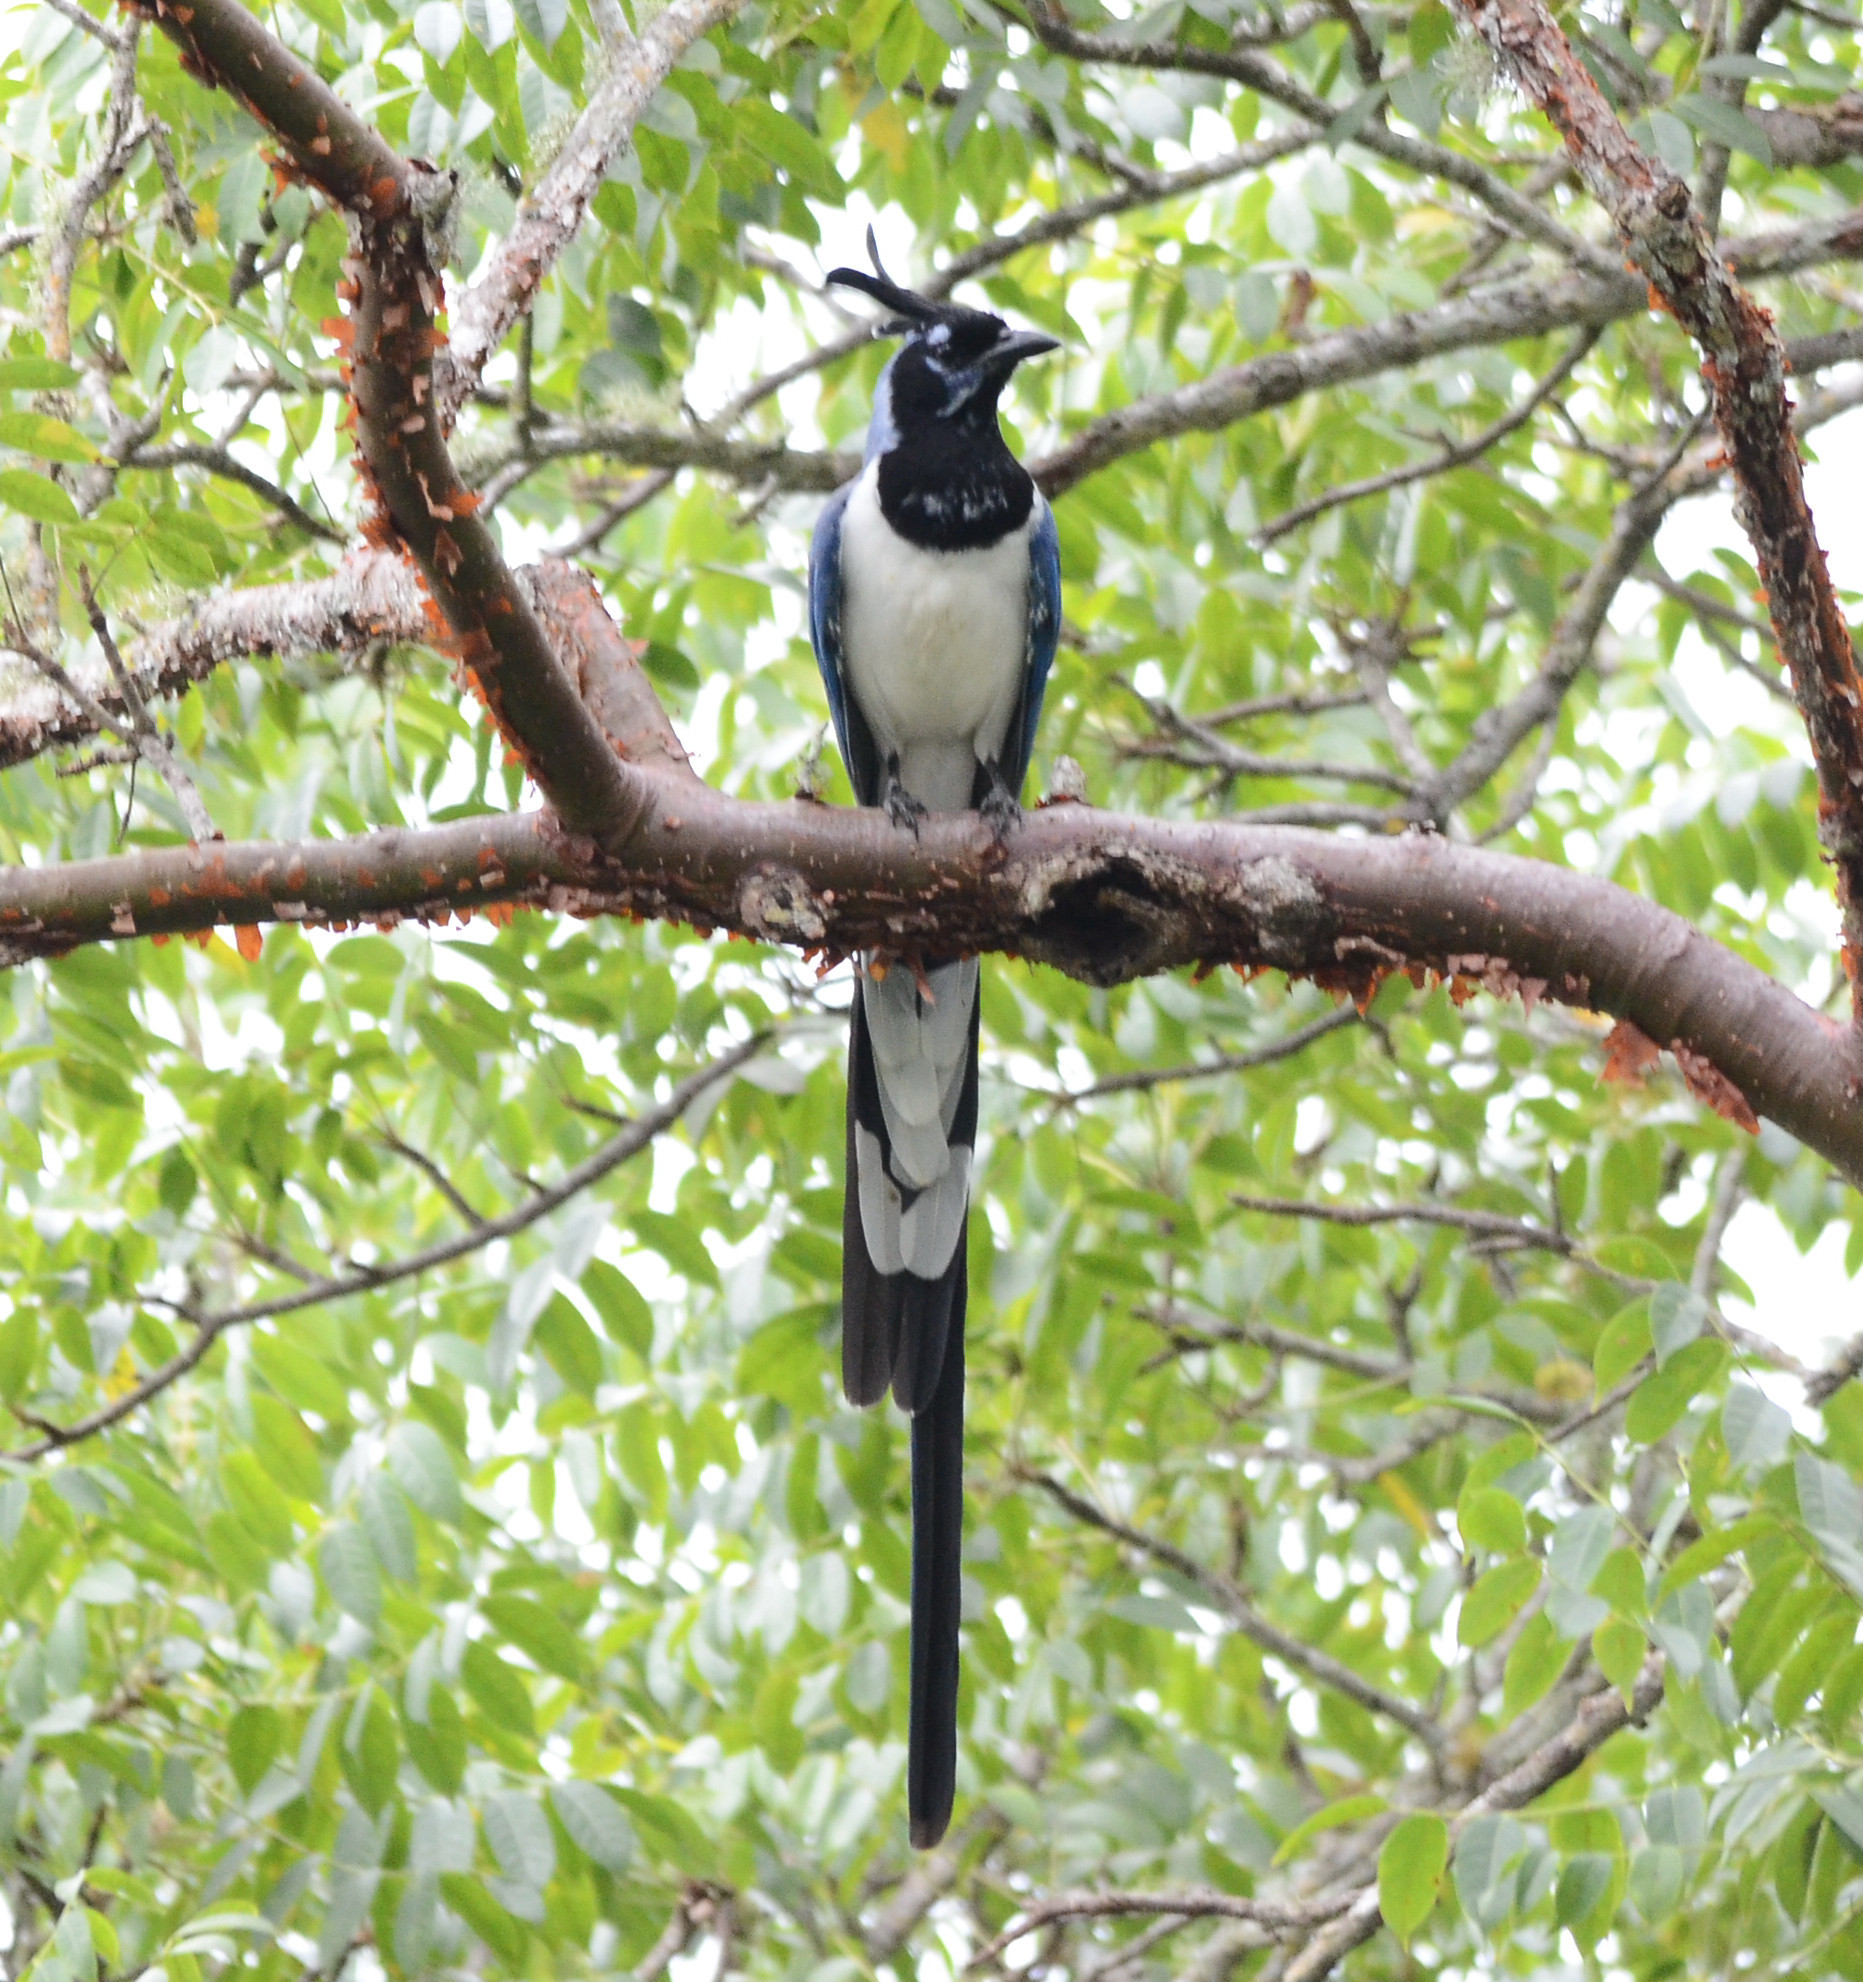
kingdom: Animalia
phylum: Chordata
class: Aves
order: Passeriformes
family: Corvidae
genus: Calocitta
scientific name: Calocitta colliei
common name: Black-throated magpie-jay
